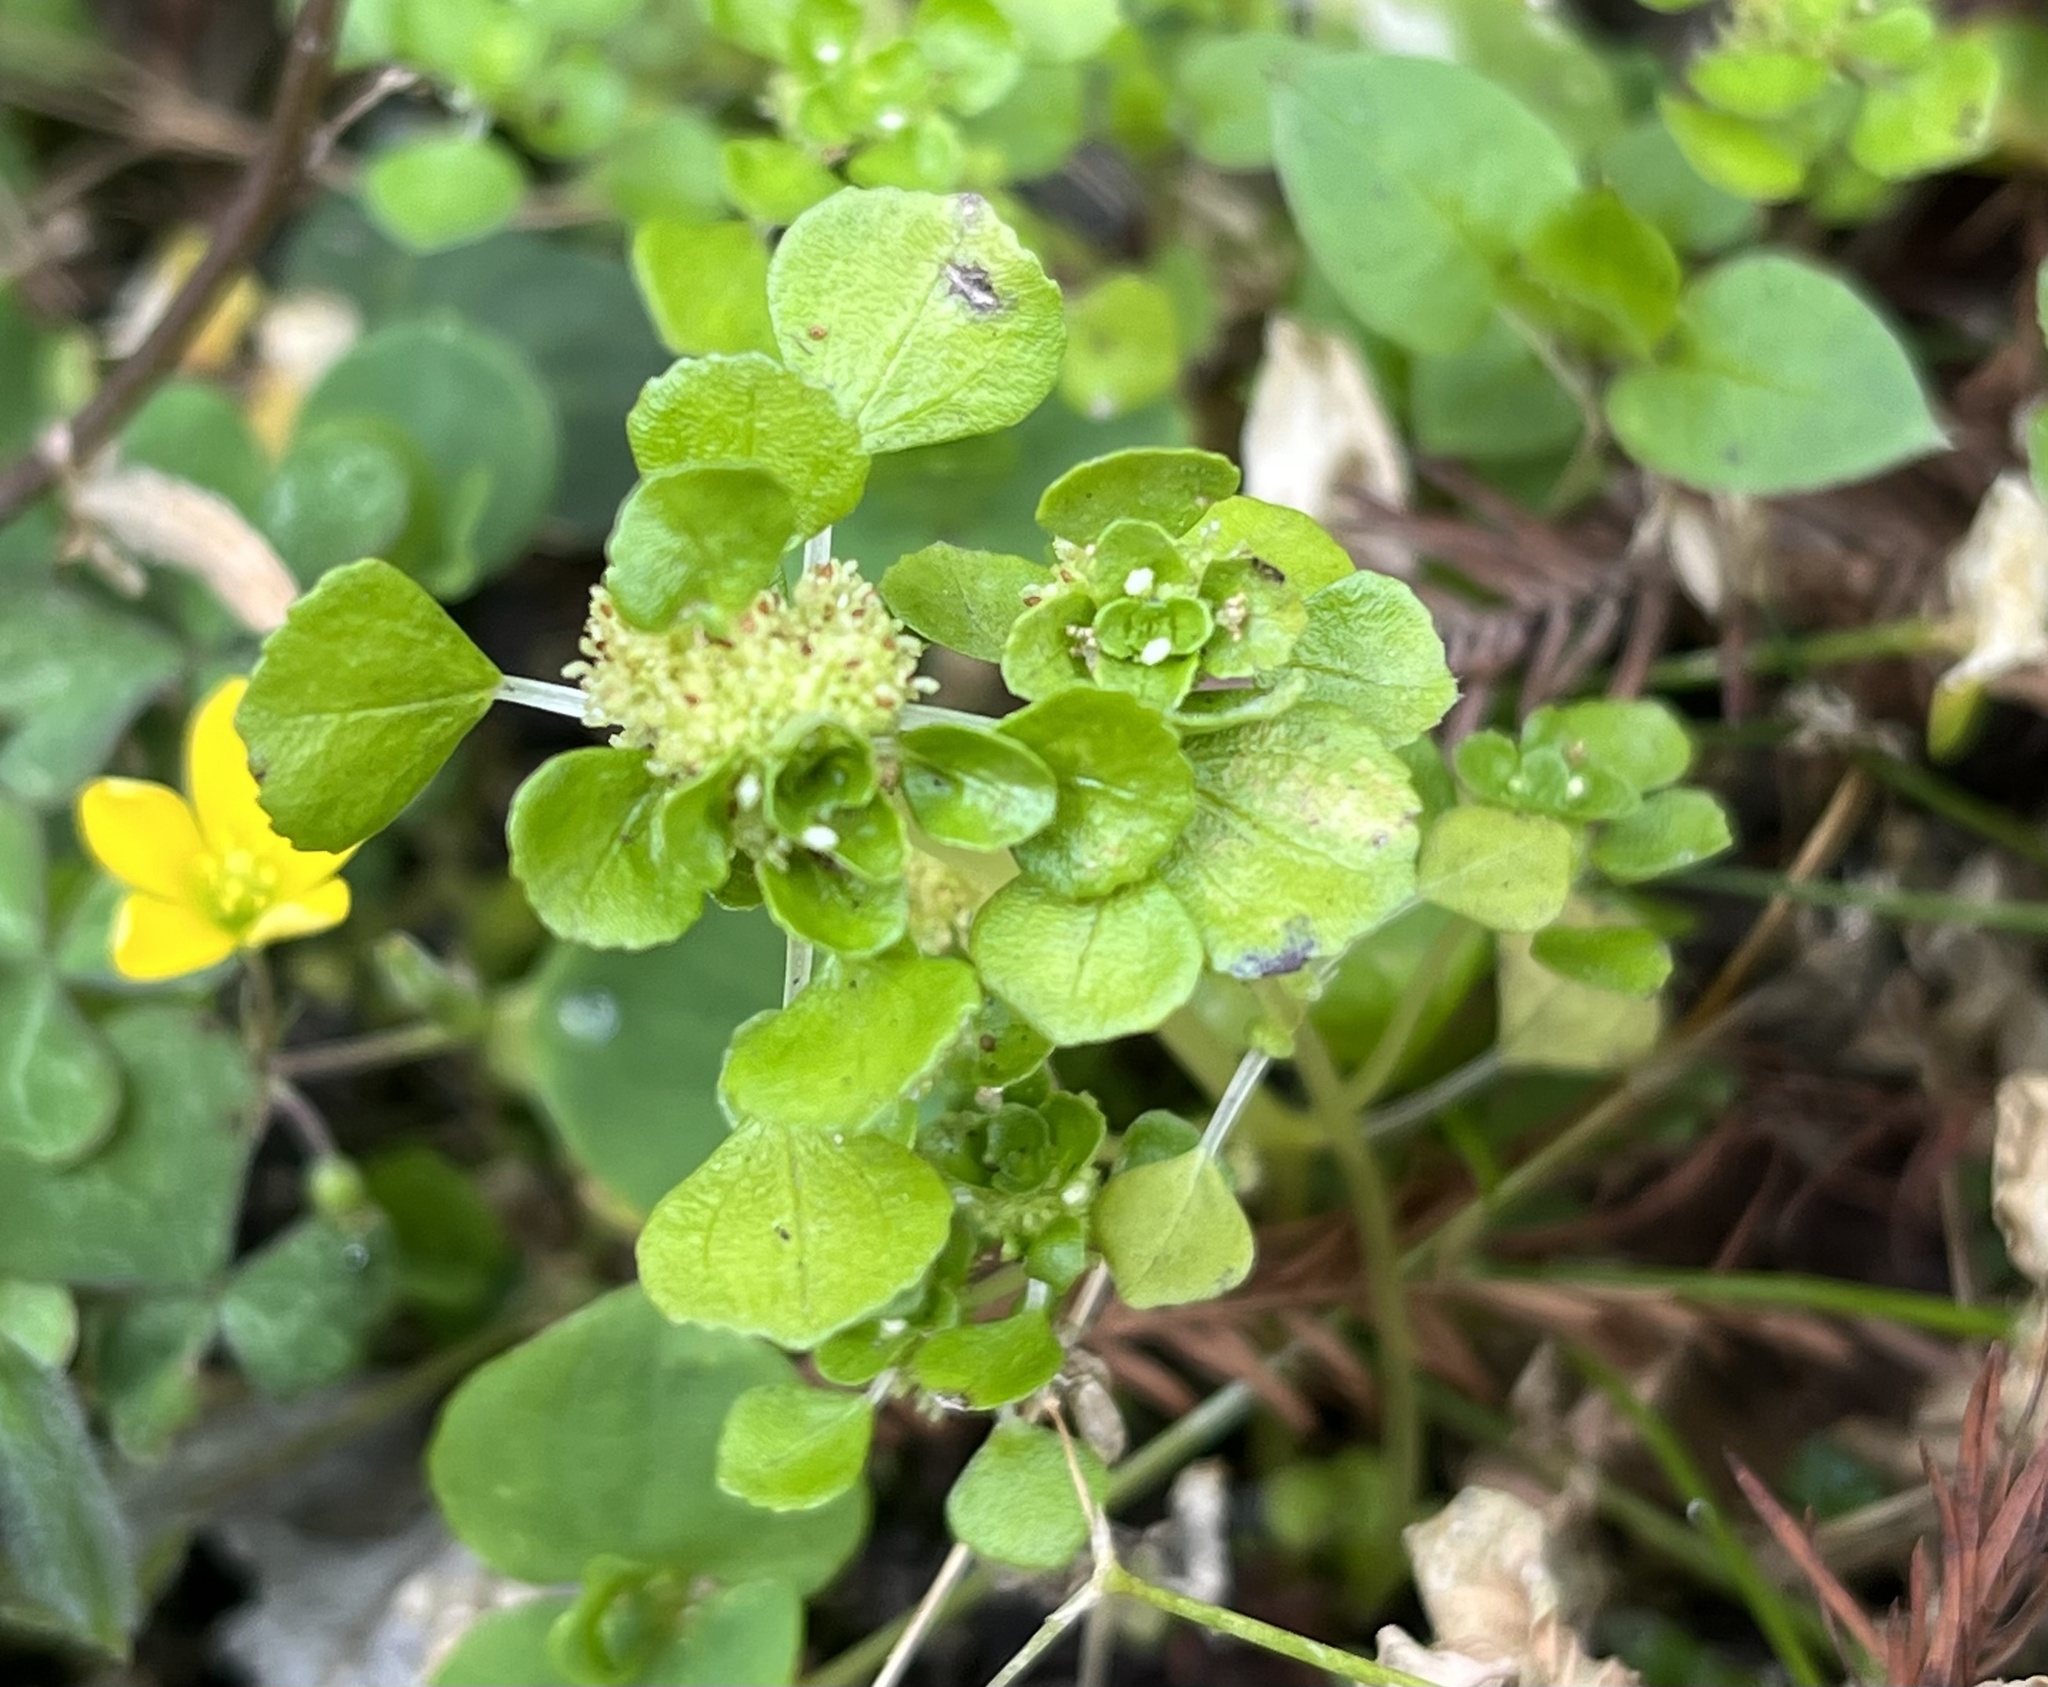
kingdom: Plantae
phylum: Tracheophyta
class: Magnoliopsida
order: Rosales
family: Urticaceae
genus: Pilea
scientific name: Pilea peploides
